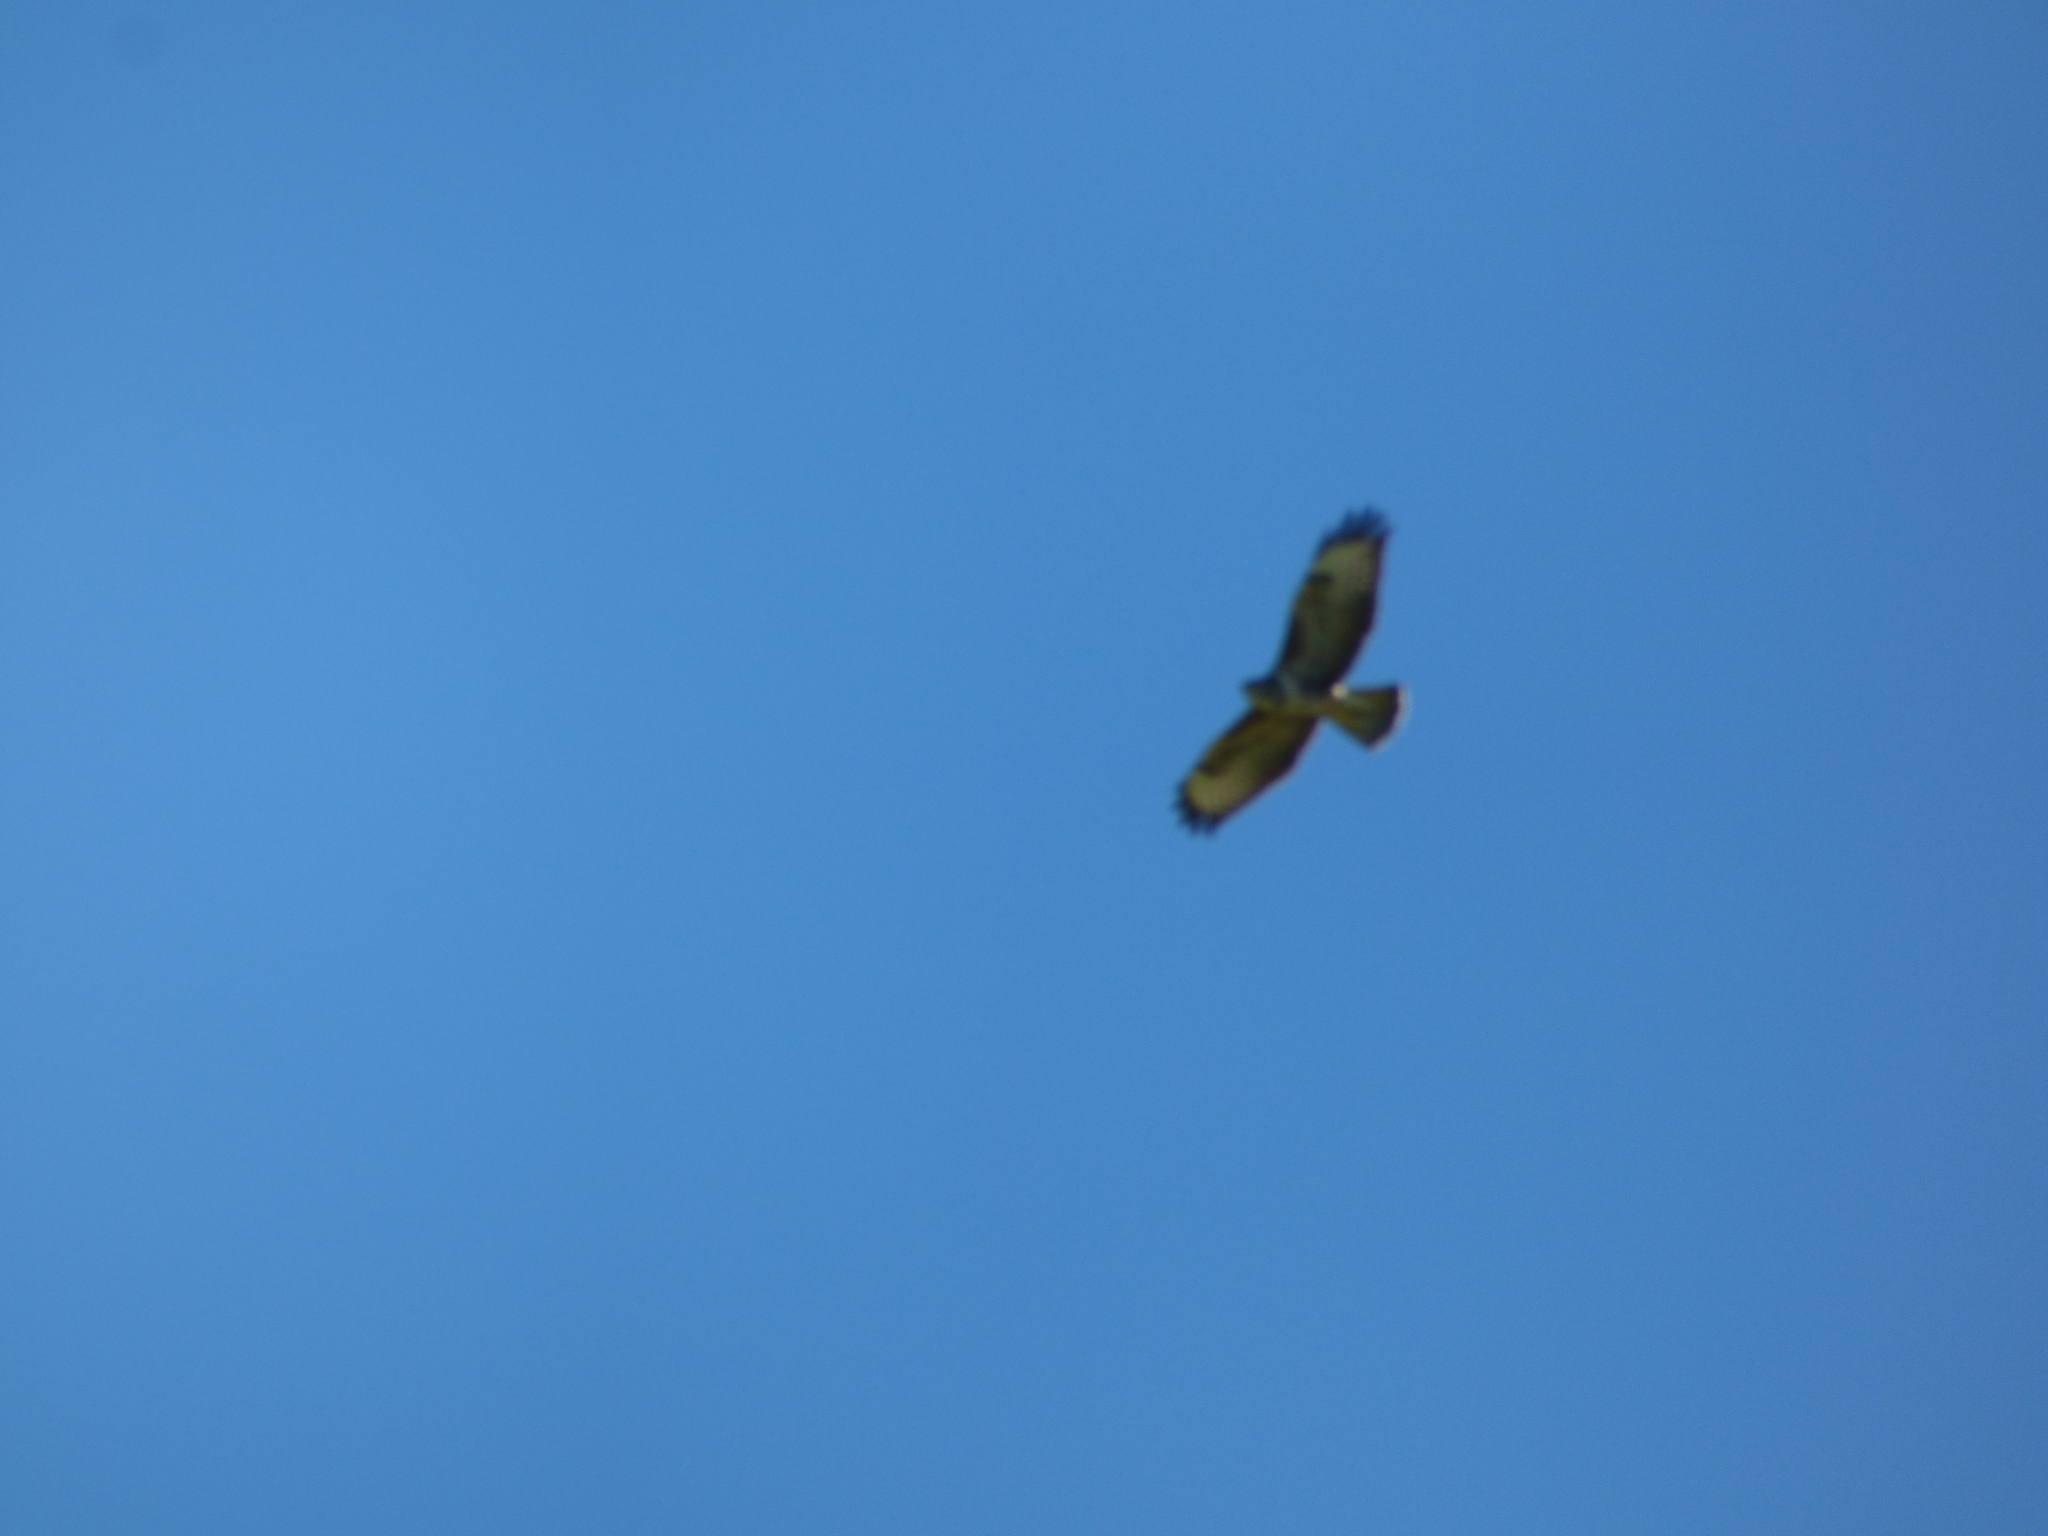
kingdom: Animalia
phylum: Chordata
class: Aves
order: Accipitriformes
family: Accipitridae
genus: Buteo
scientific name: Buteo buteo
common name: Common buzzard
